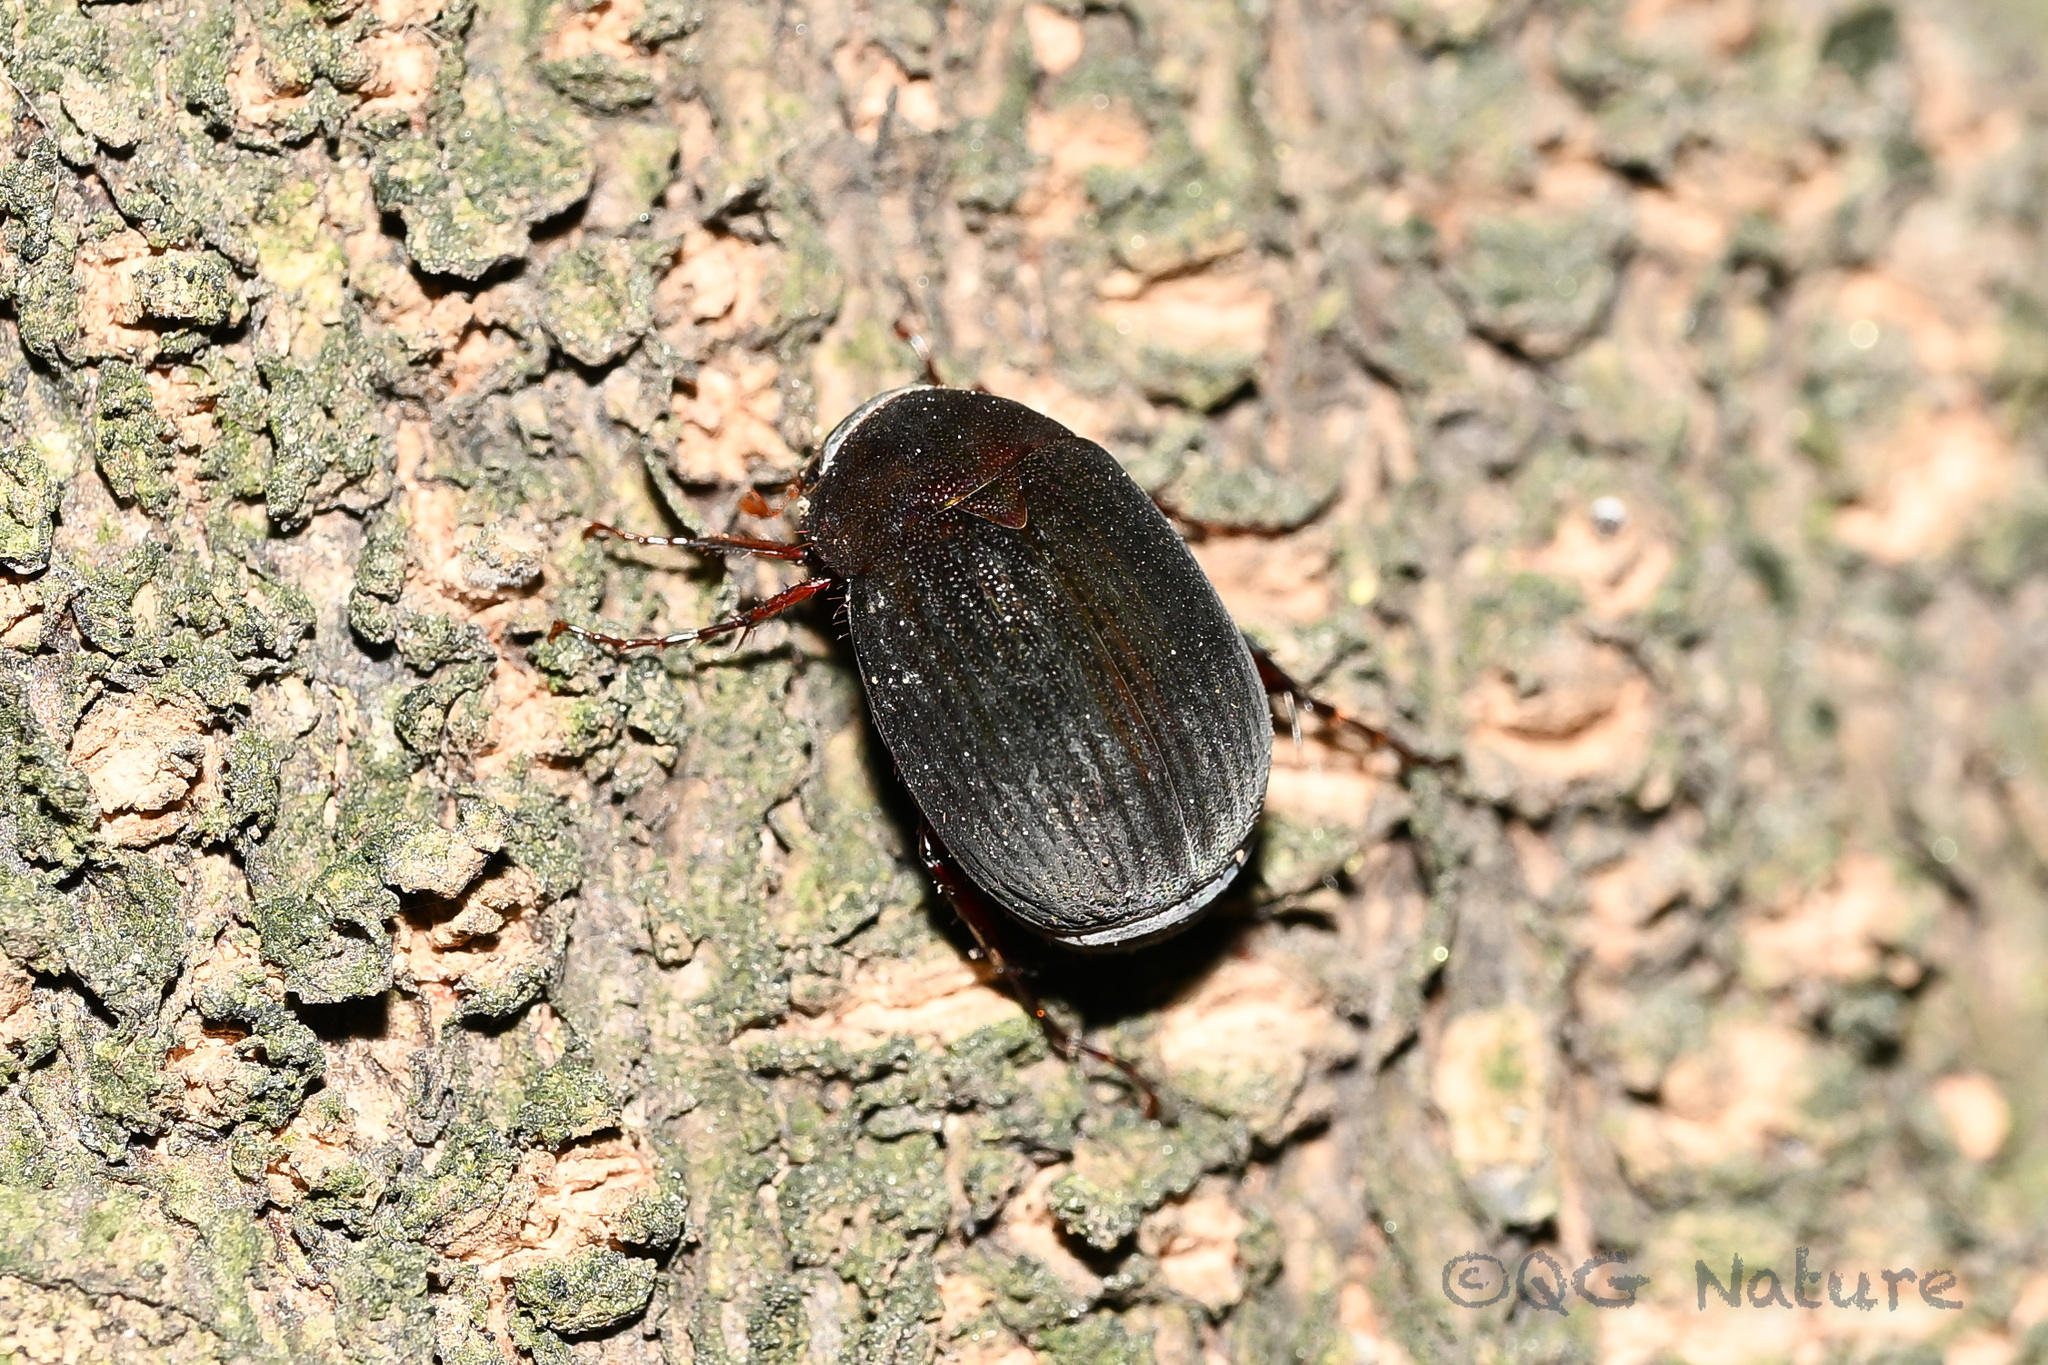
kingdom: Animalia
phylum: Arthropoda
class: Insecta
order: Coleoptera
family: Scarabaeidae
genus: Maladera
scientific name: Maladera orientalis
